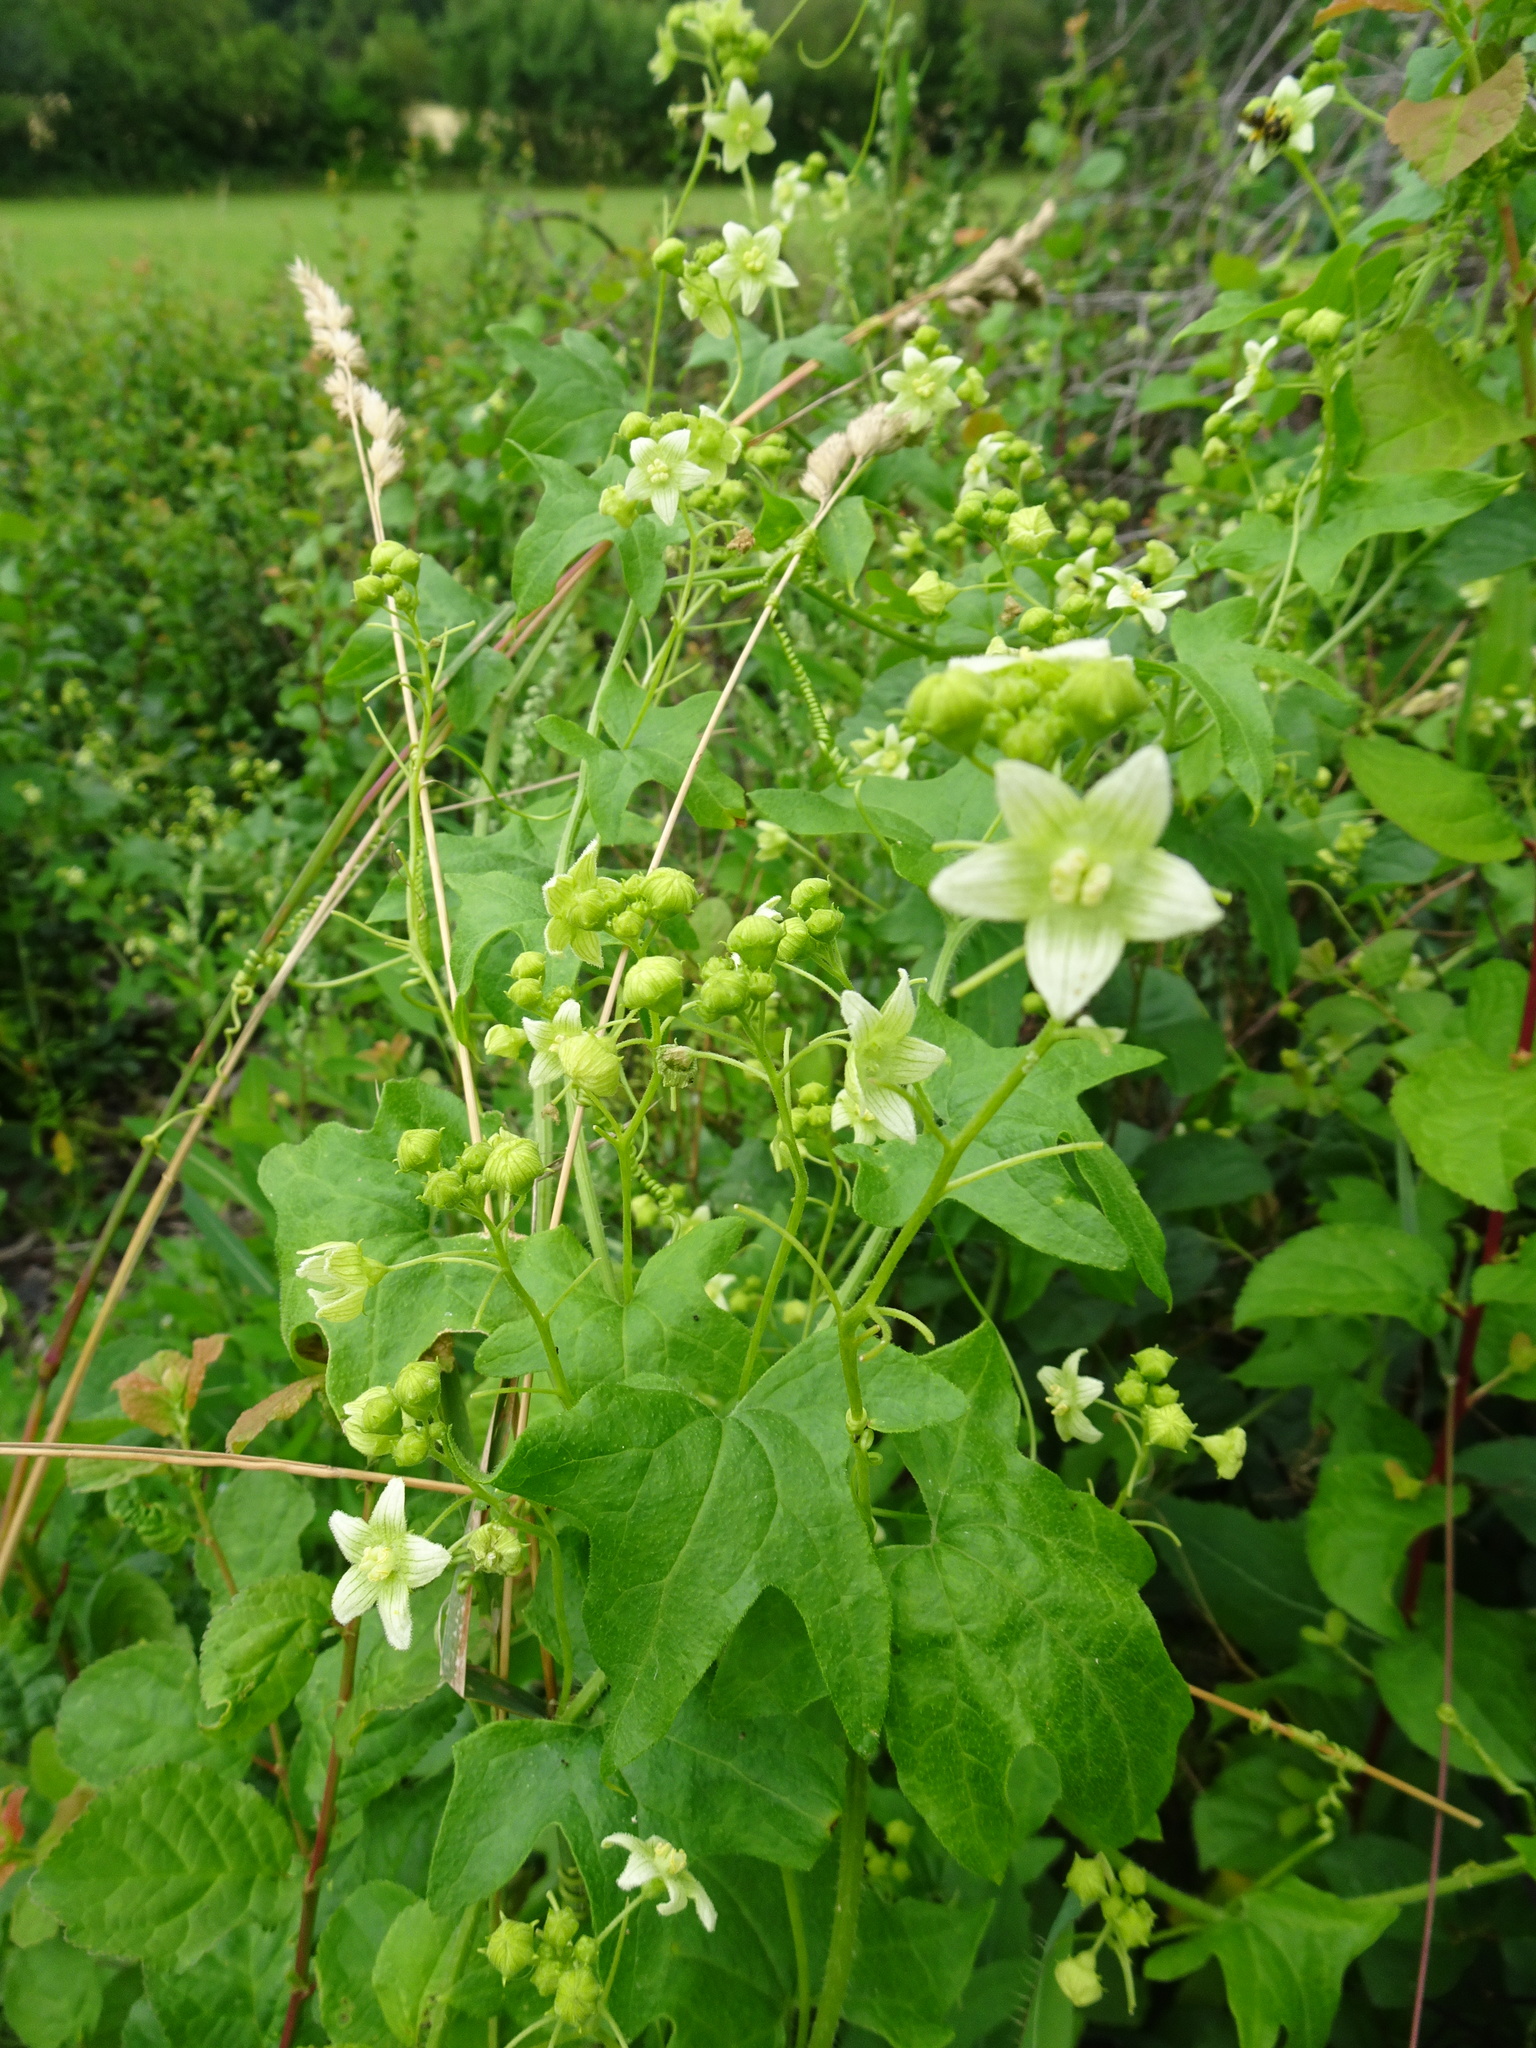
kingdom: Plantae
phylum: Tracheophyta
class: Magnoliopsida
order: Cucurbitales
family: Cucurbitaceae
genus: Bryonia
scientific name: Bryonia dioica
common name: White bryony
